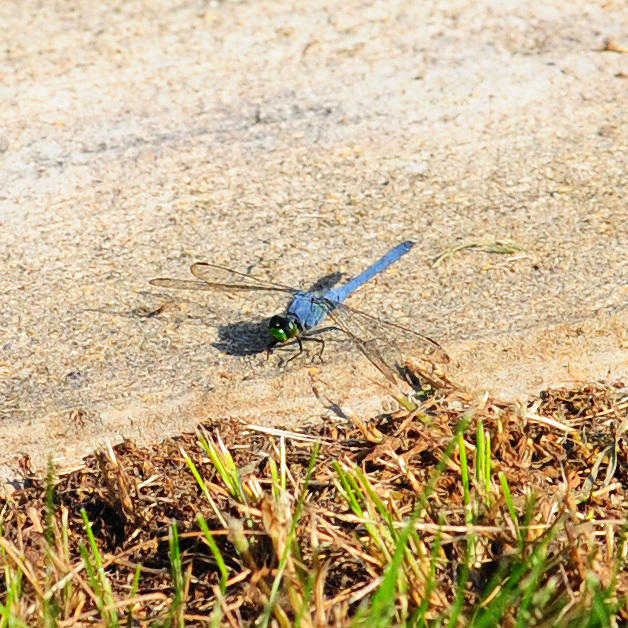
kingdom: Animalia
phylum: Arthropoda
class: Insecta
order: Odonata
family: Libellulidae
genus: Erythemis
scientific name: Erythemis simplicicollis
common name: Eastern pondhawk
